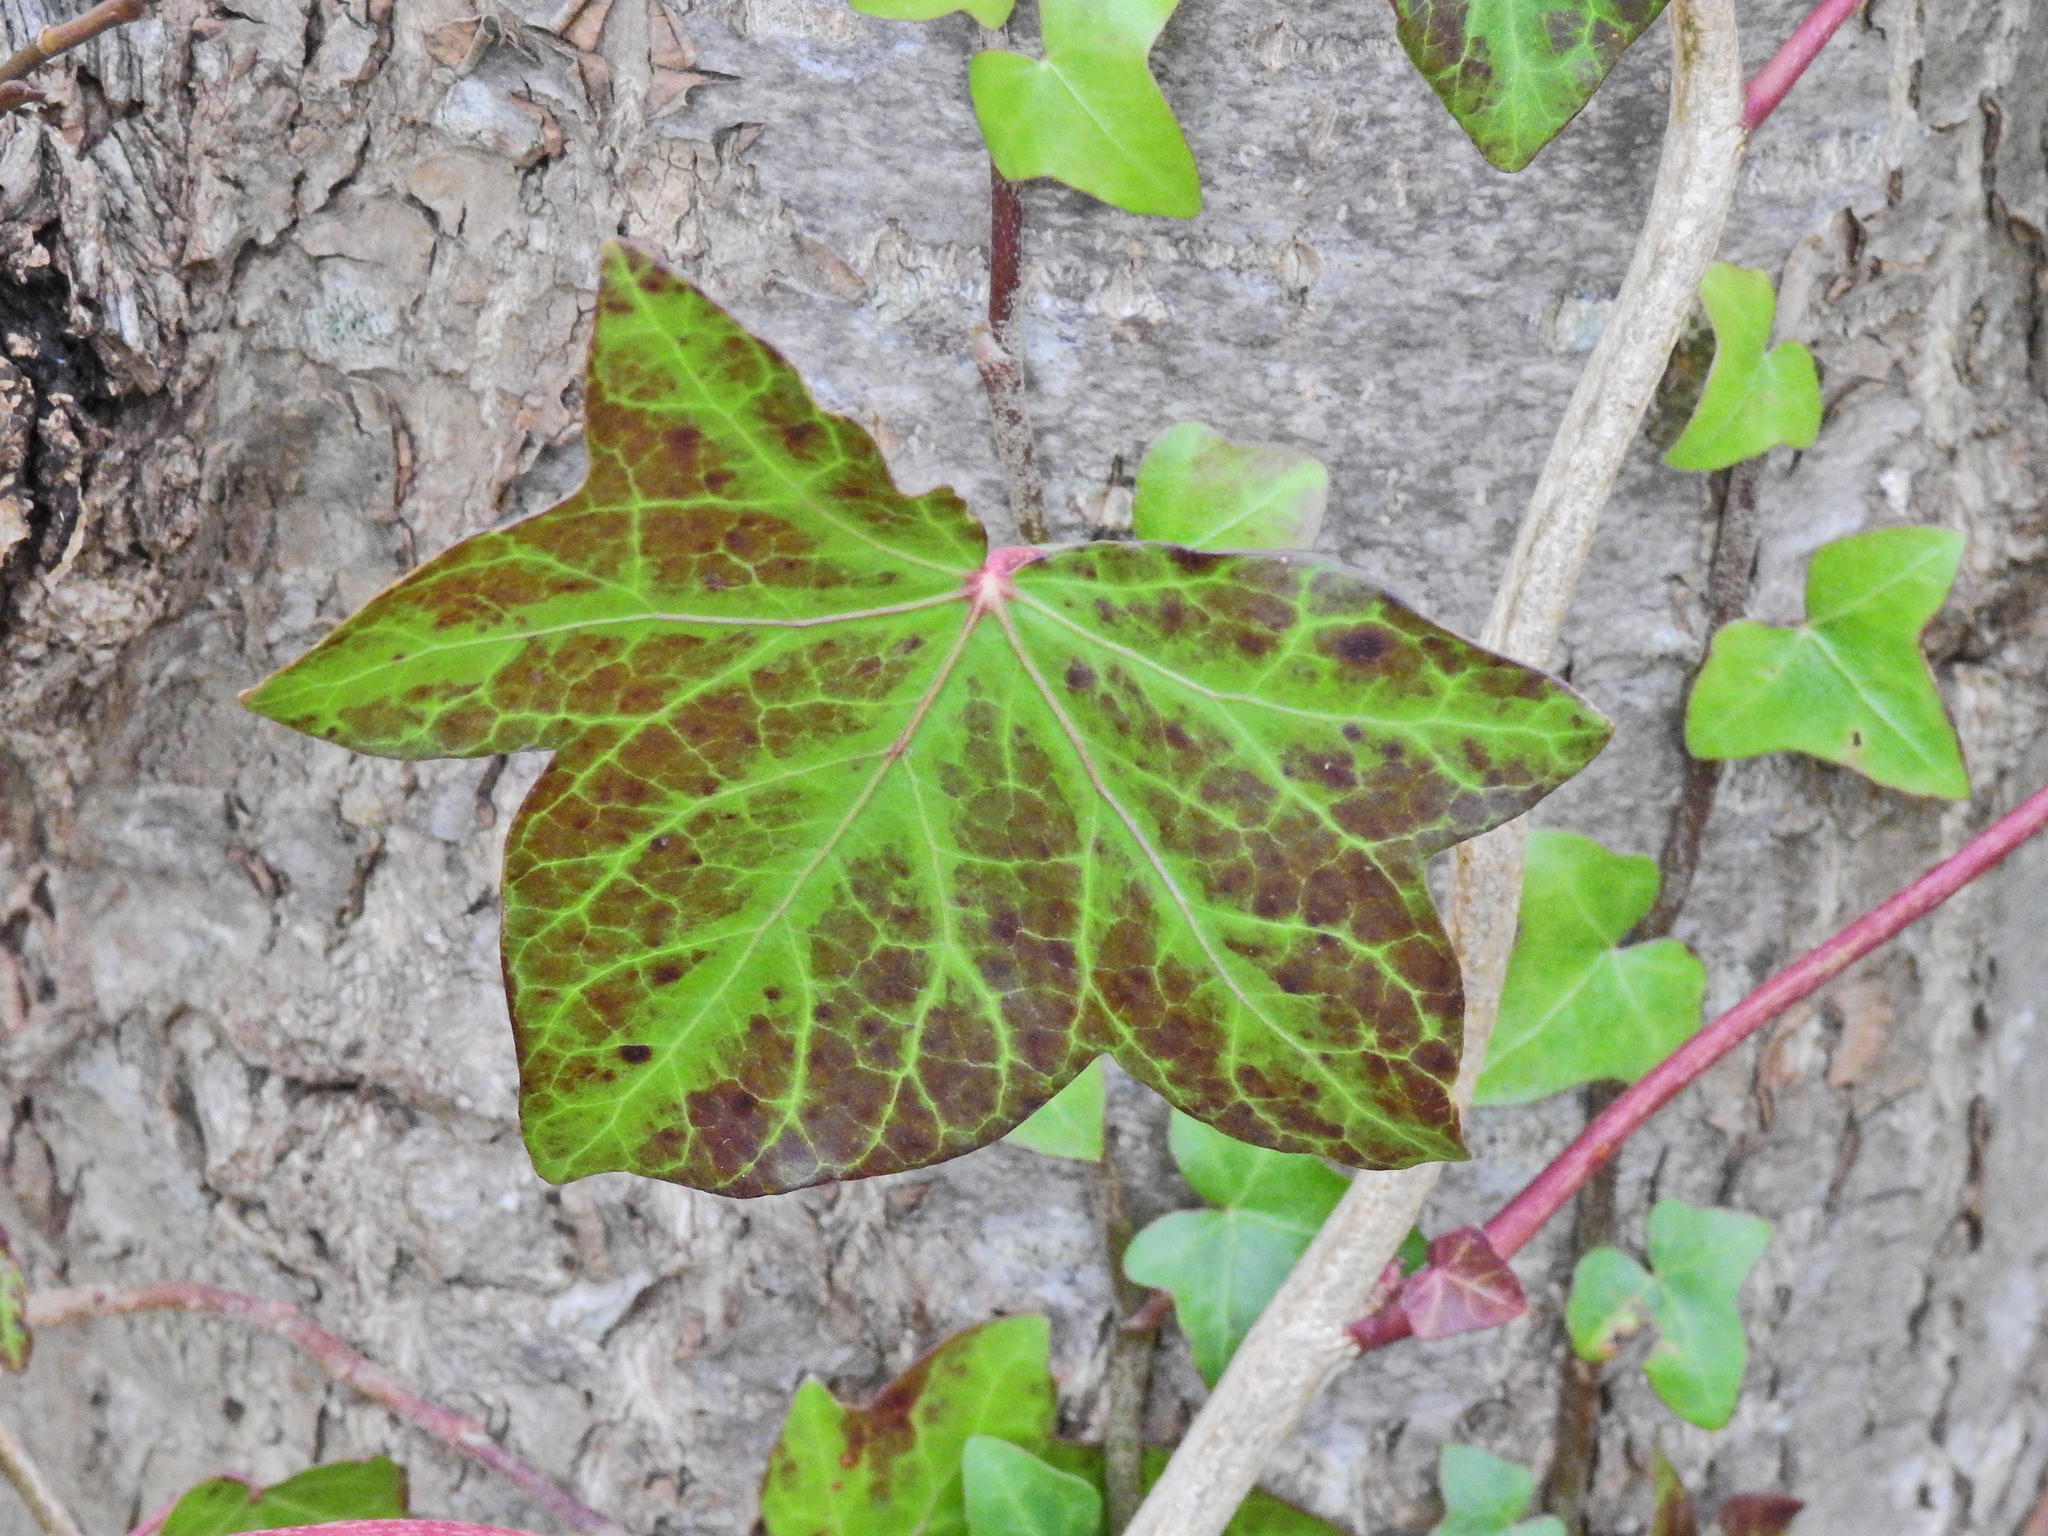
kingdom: Plantae
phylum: Tracheophyta
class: Magnoliopsida
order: Apiales
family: Araliaceae
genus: Hedera
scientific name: Hedera helix
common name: Ivy
